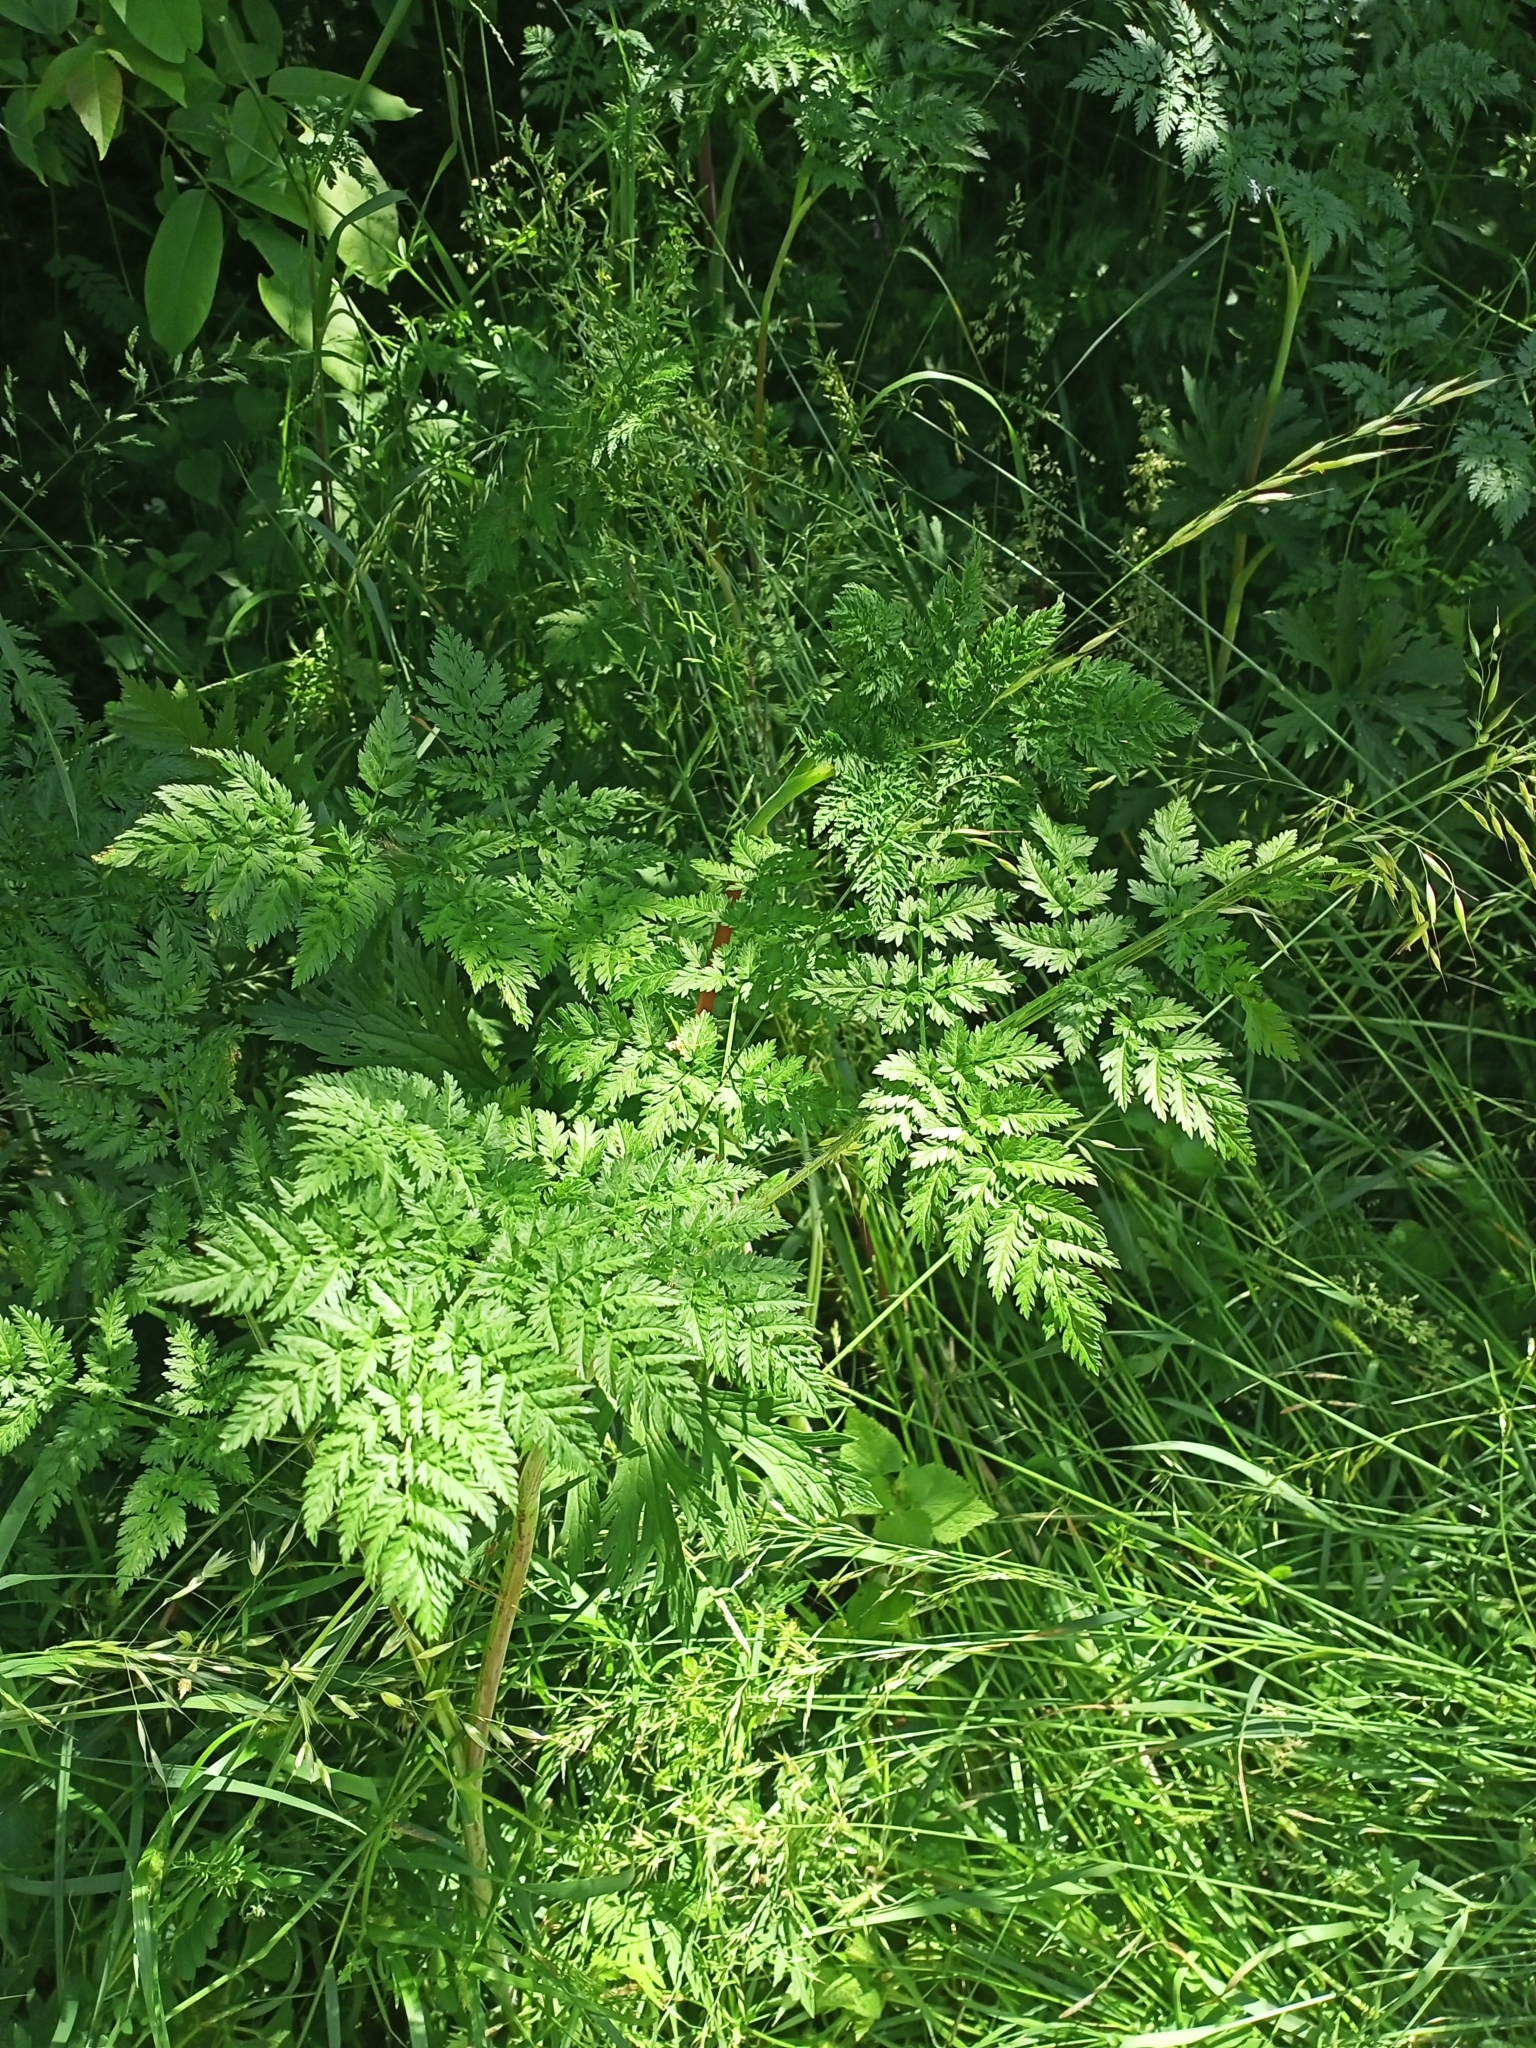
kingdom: Plantae
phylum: Tracheophyta
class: Magnoliopsida
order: Apiales
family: Apiaceae
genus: Chaerophyllum
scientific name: Chaerophyllum bulbosum
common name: Bulbous chervil
